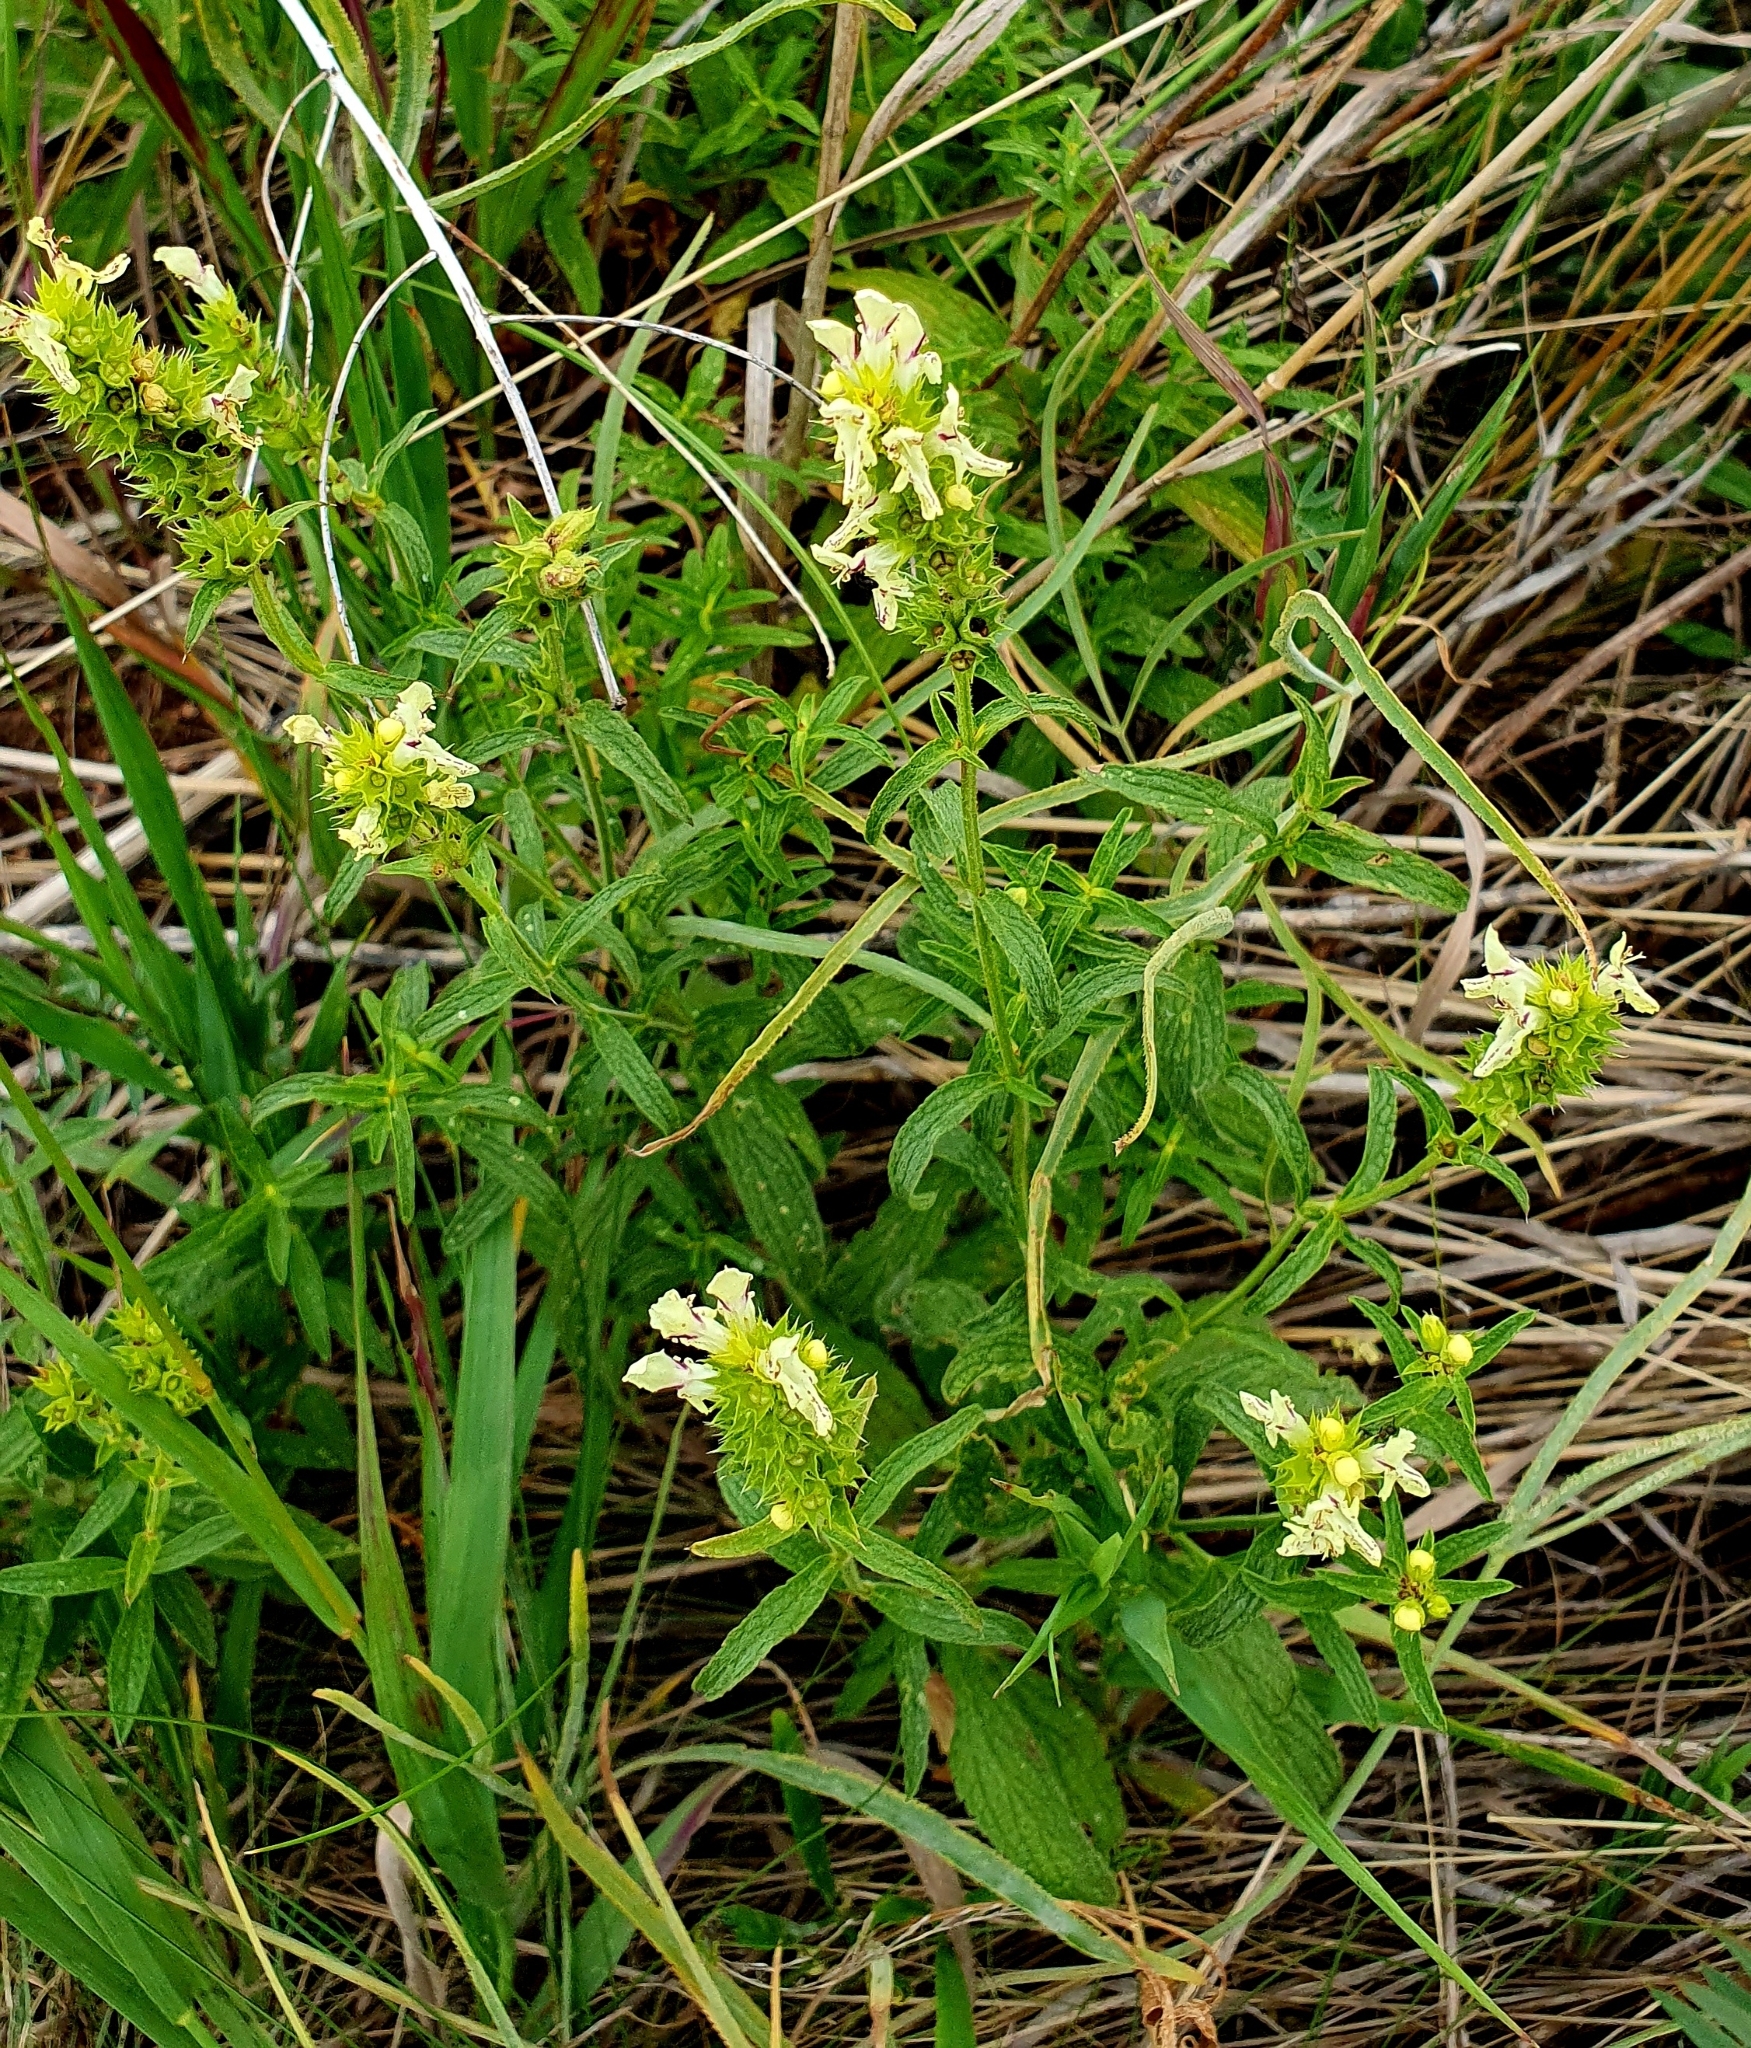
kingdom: Plantae
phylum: Tracheophyta
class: Magnoliopsida
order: Lamiales
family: Lamiaceae
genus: Stachys
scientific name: Stachys recta
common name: Perennial yellow-woundwort
